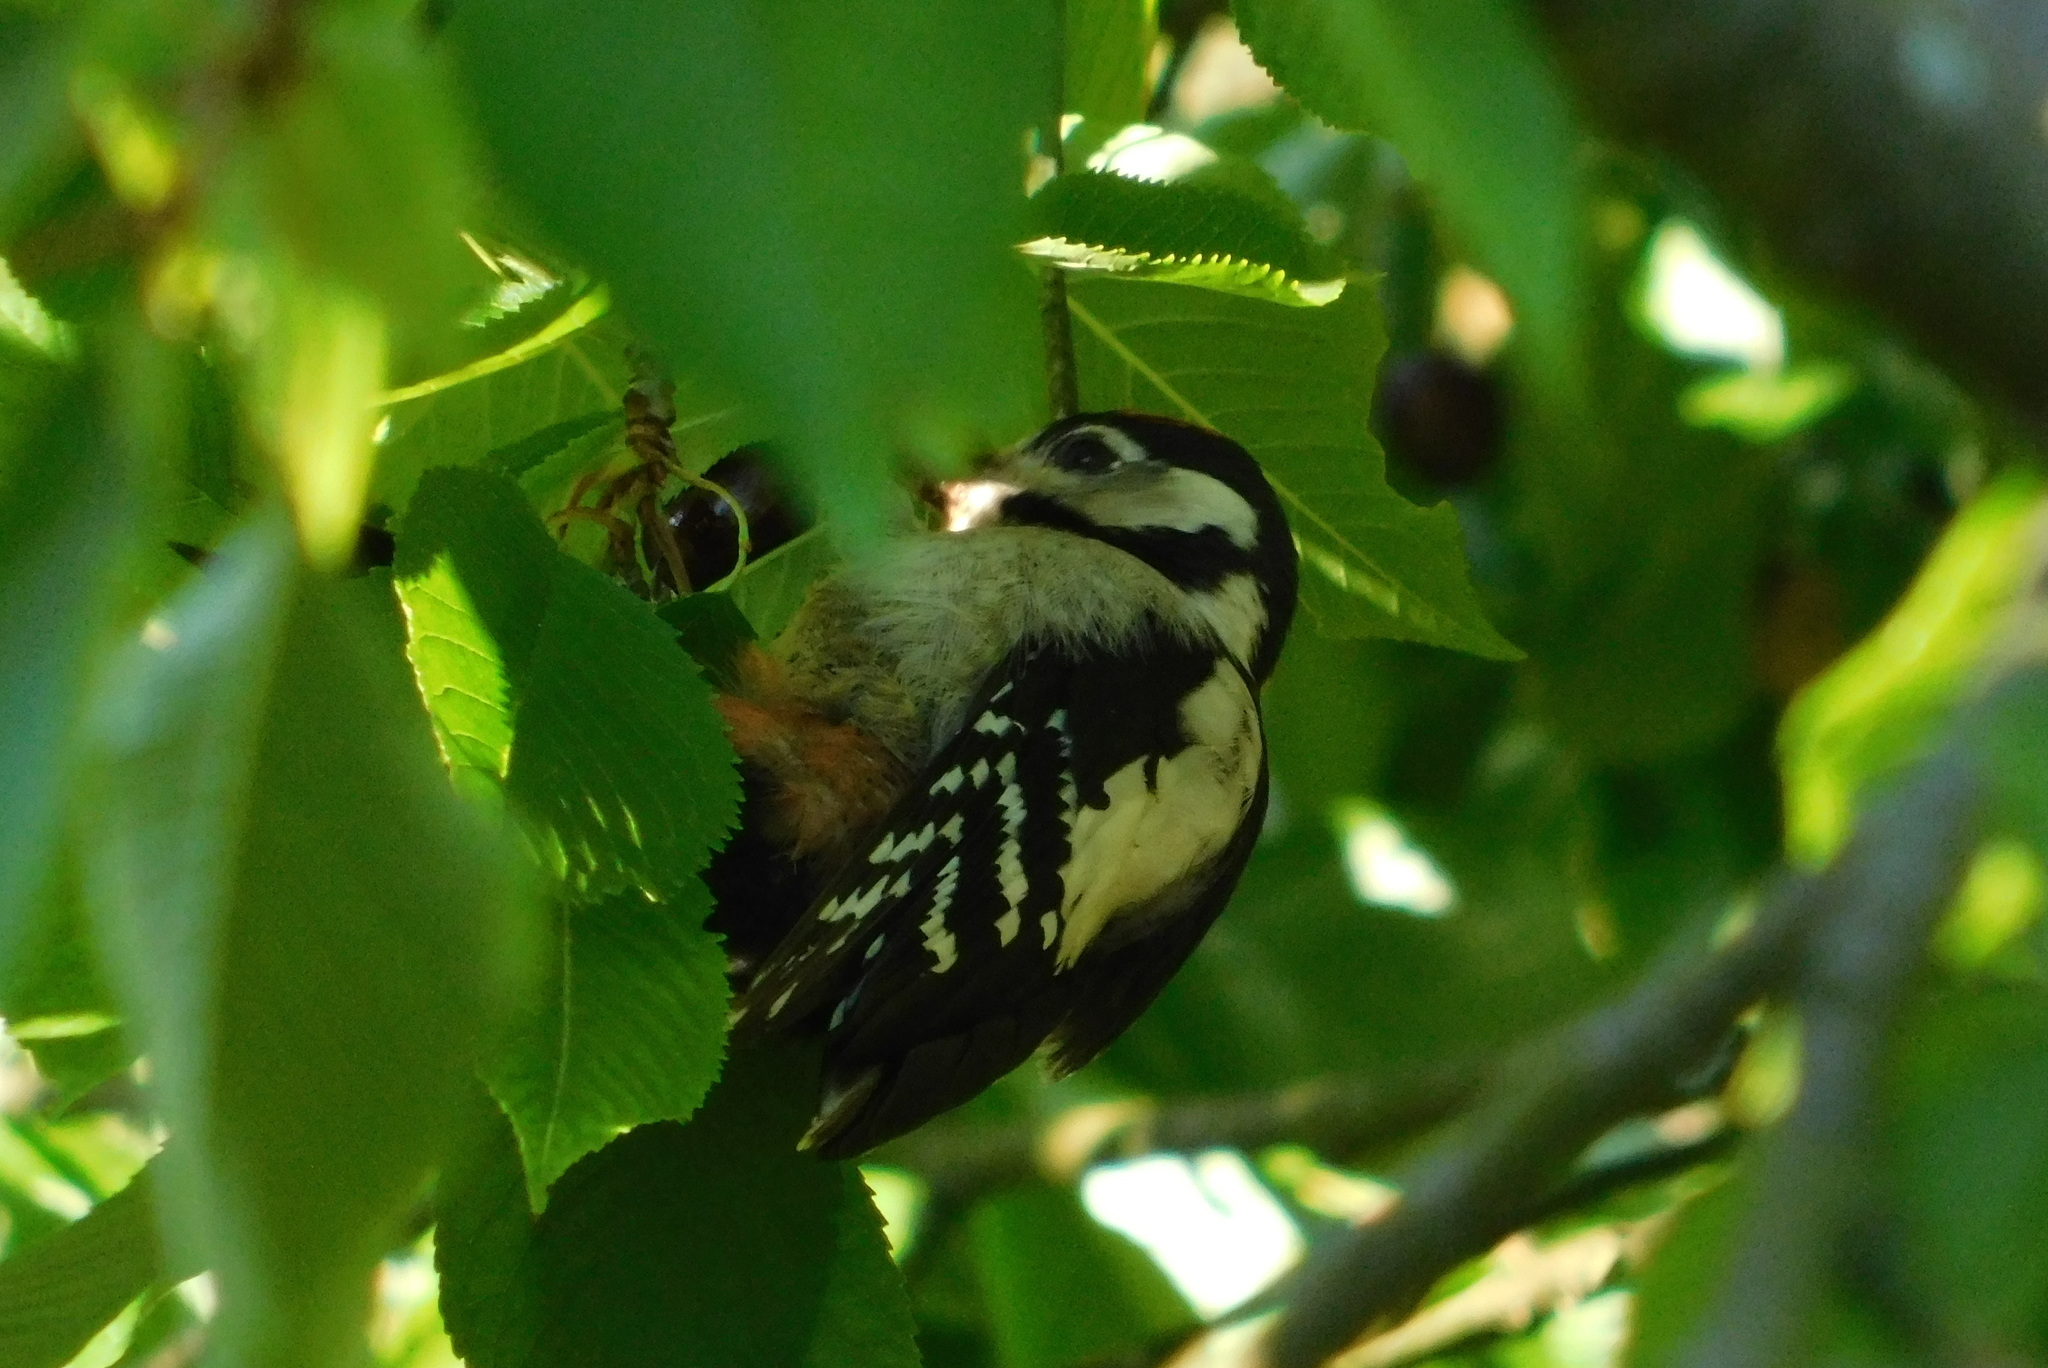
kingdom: Animalia
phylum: Chordata
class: Aves
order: Piciformes
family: Picidae
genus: Dendrocopos
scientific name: Dendrocopos major
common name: Great spotted woodpecker
